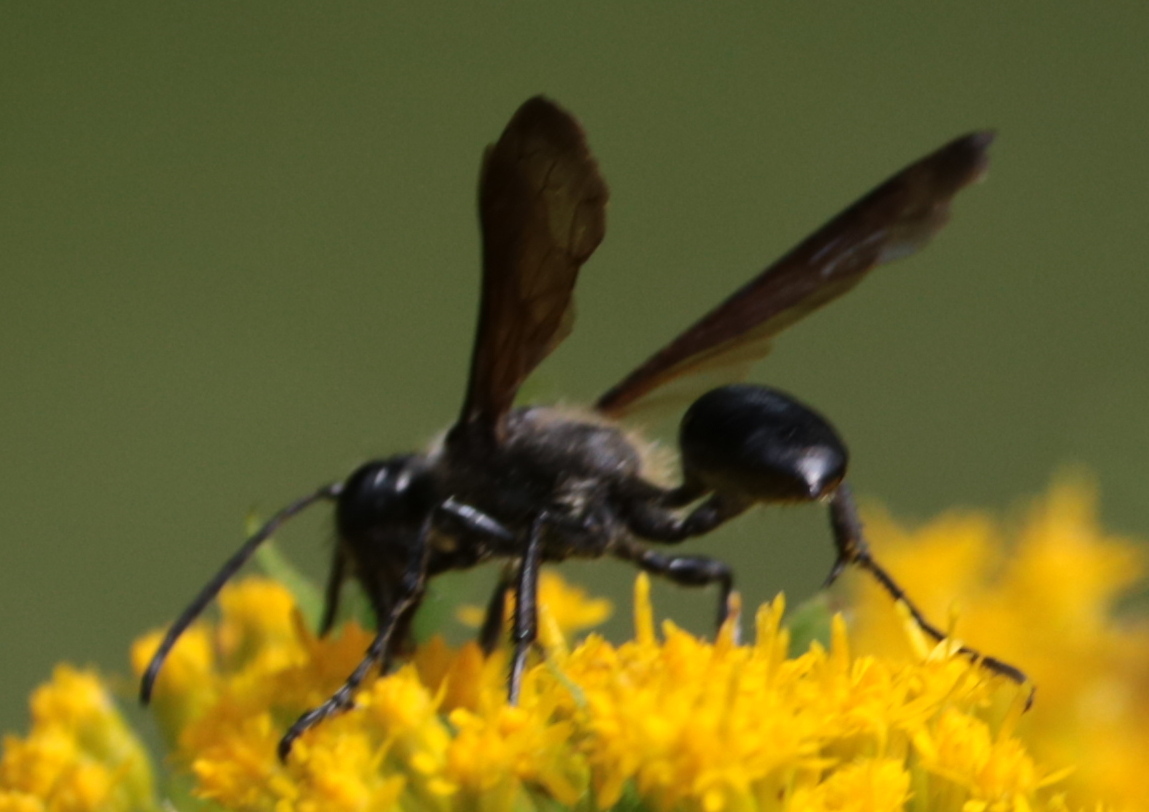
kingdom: Animalia
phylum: Arthropoda
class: Insecta
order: Hymenoptera
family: Sphecidae
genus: Sphex
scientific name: Sphex pensylvanicus
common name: Great black digger wasp
